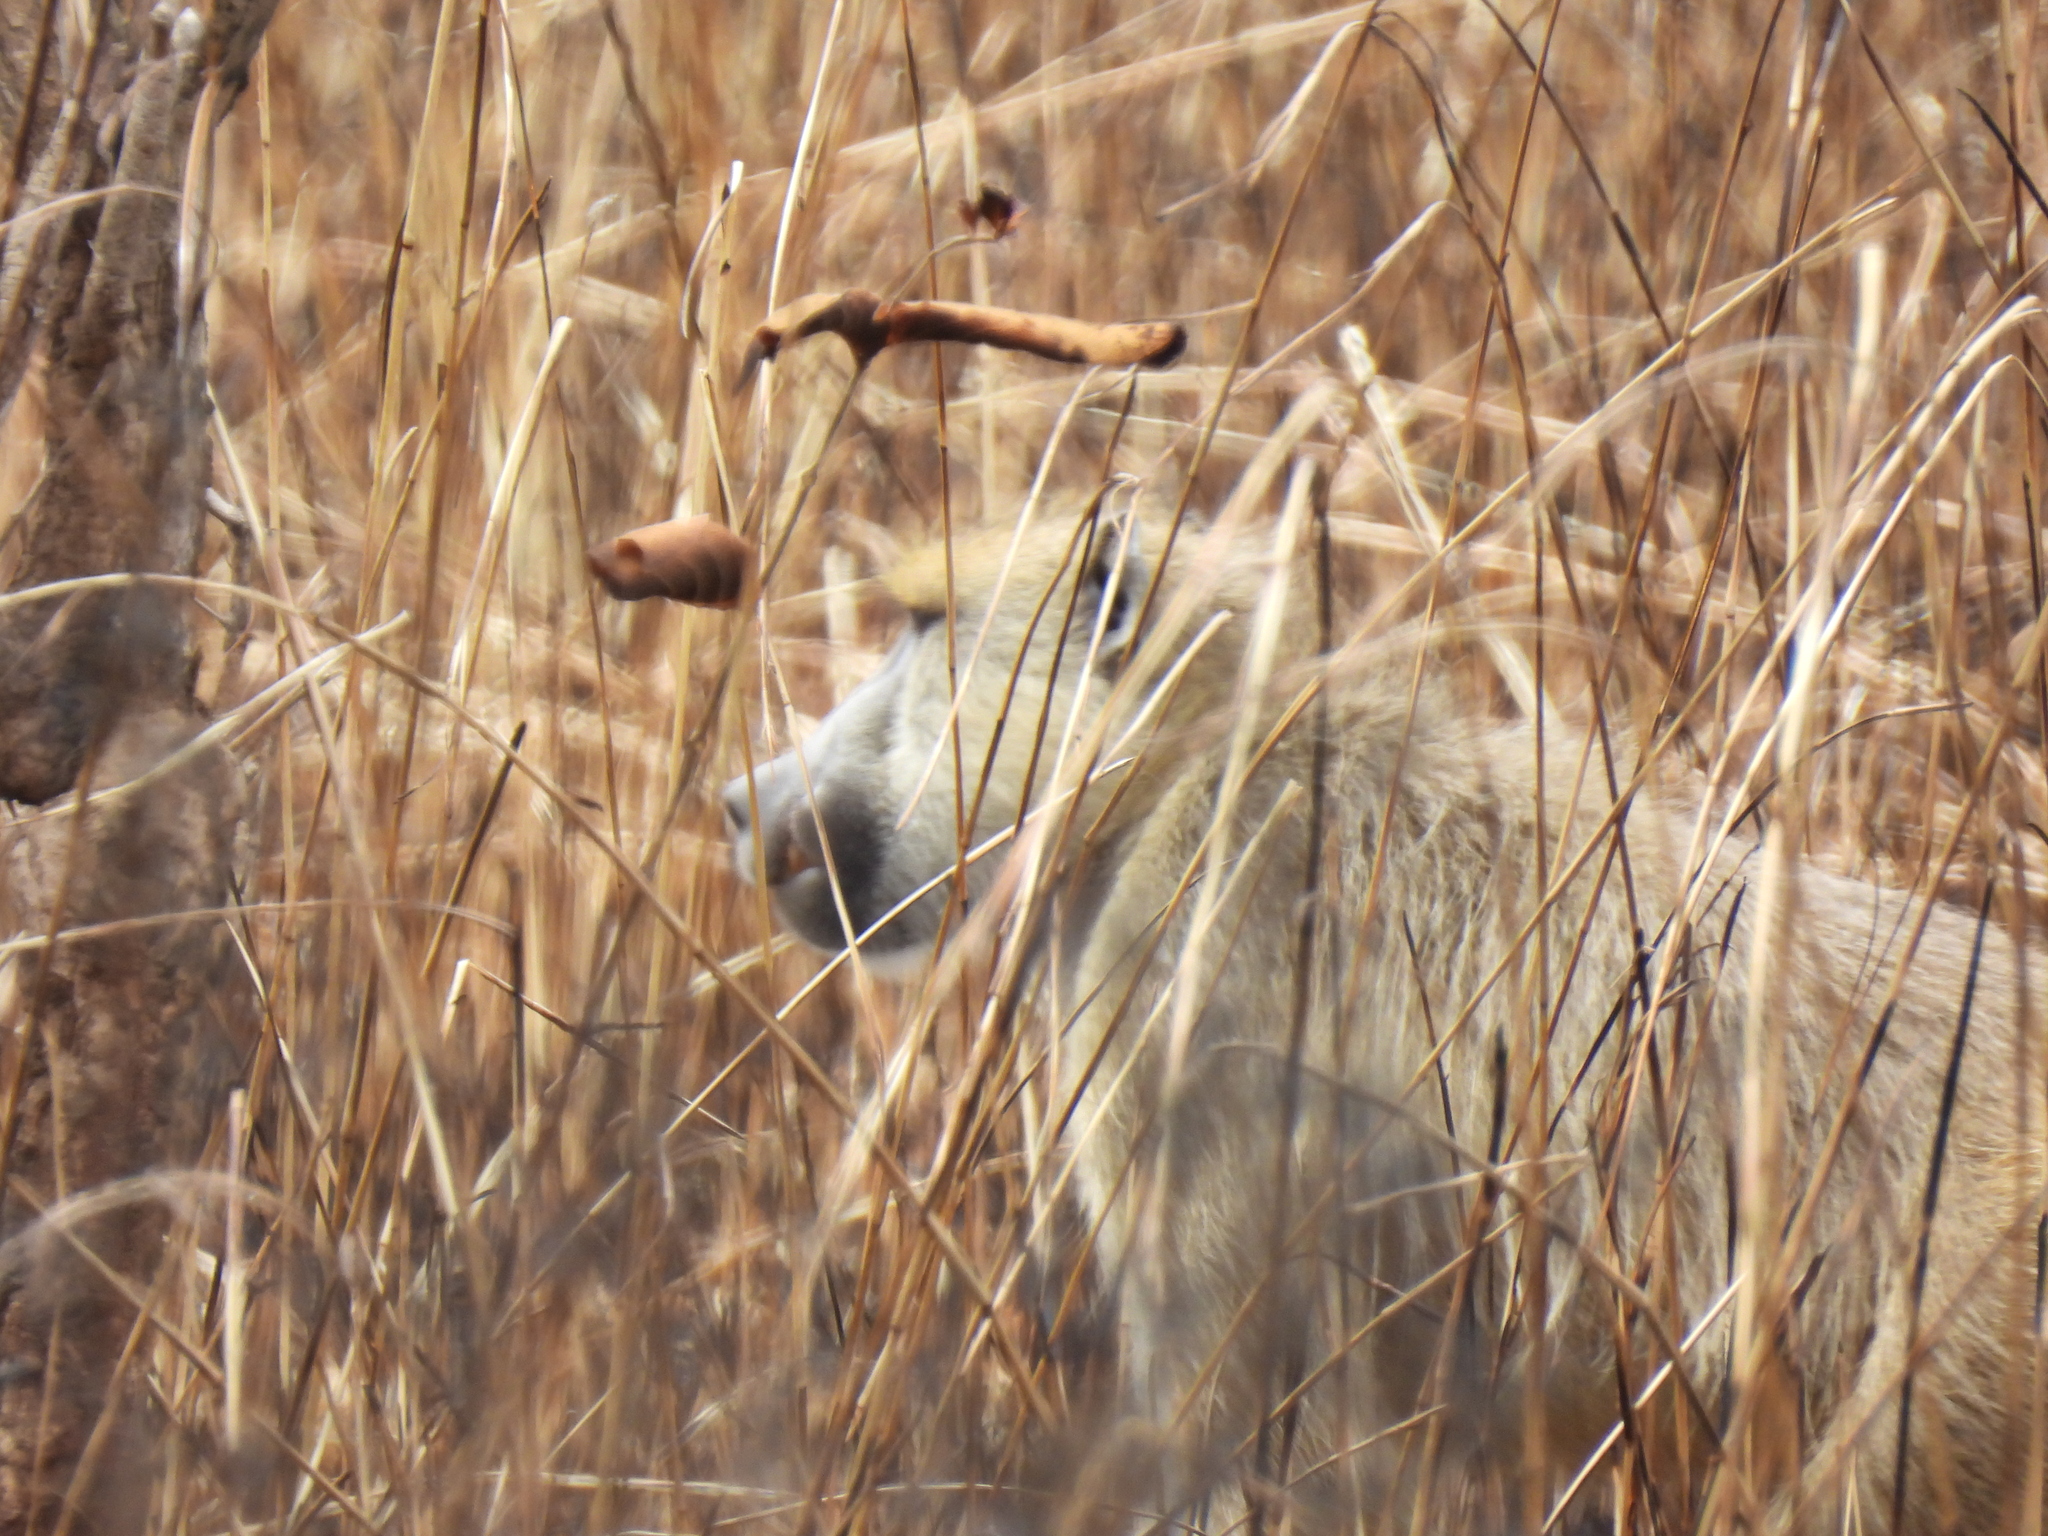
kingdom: Animalia
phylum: Chordata
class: Mammalia
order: Primates
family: Cercopithecidae
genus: Papio
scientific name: Papio cynocephalus
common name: Yellow baboon
